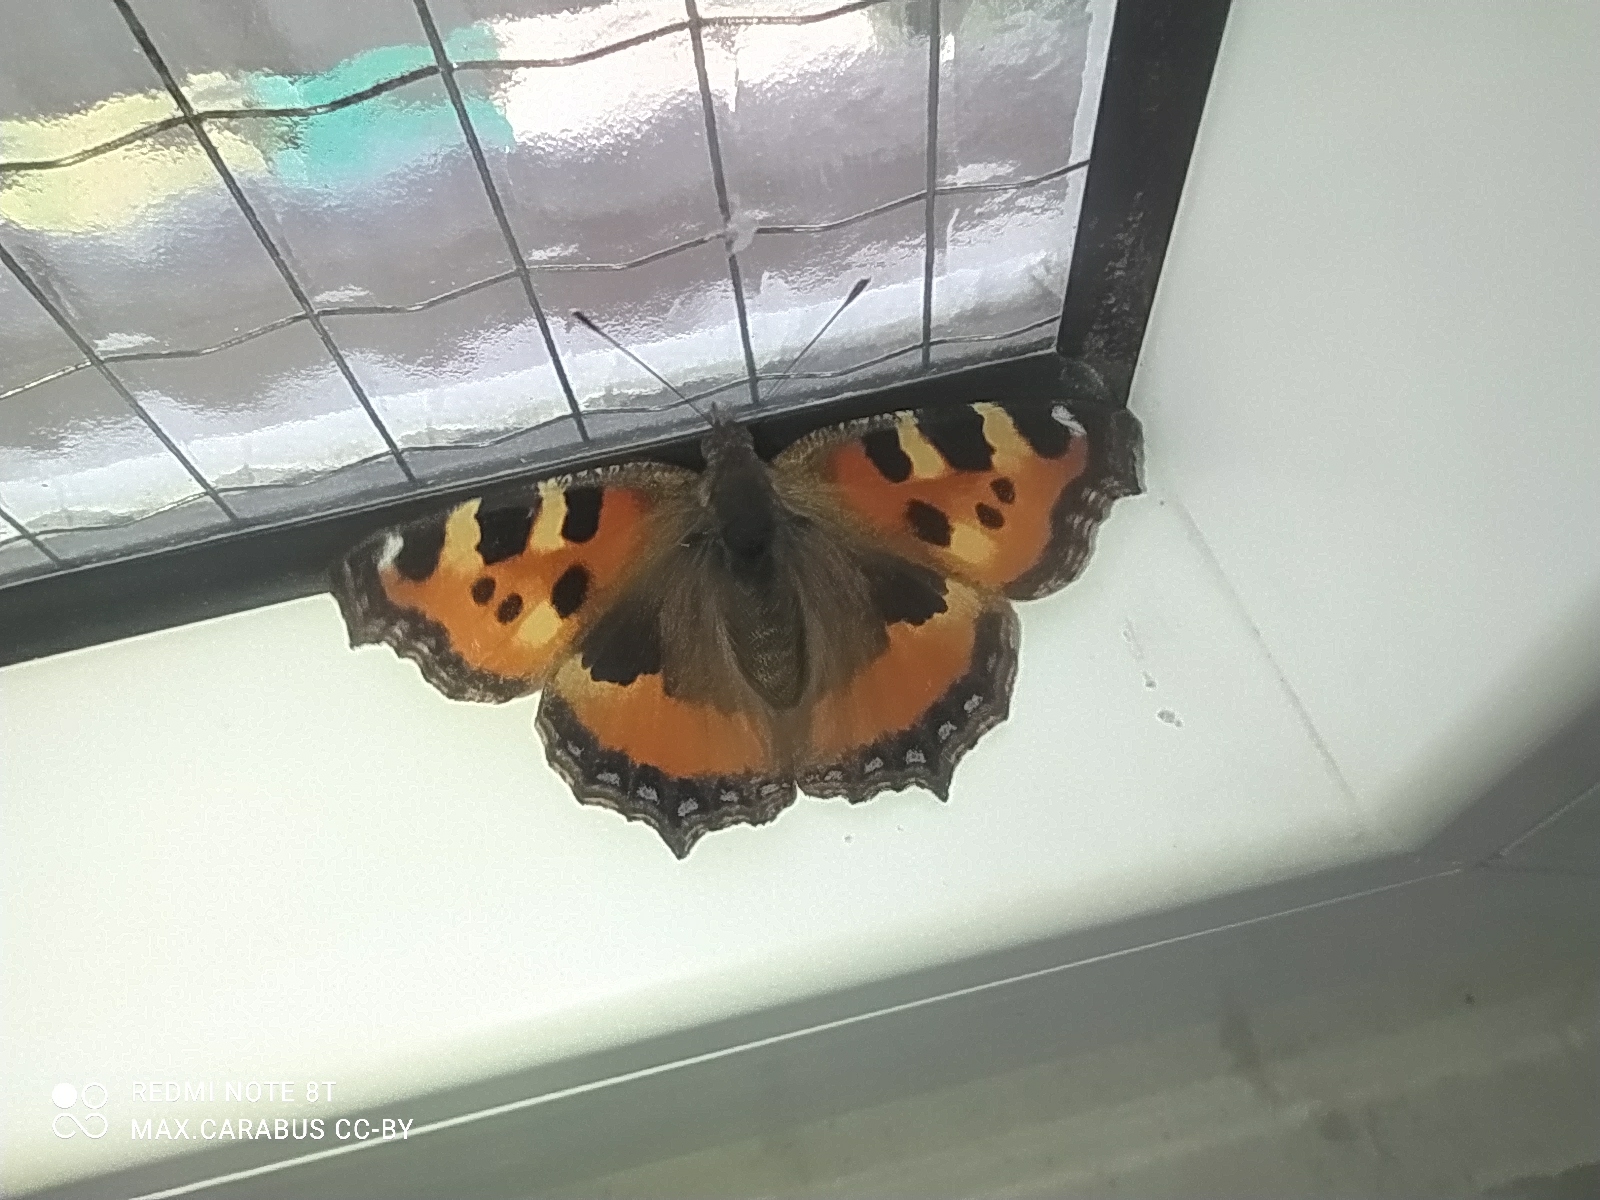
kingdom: Animalia
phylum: Arthropoda
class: Insecta
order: Lepidoptera
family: Nymphalidae
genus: Aglais
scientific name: Aglais urticae
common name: Small tortoiseshell
